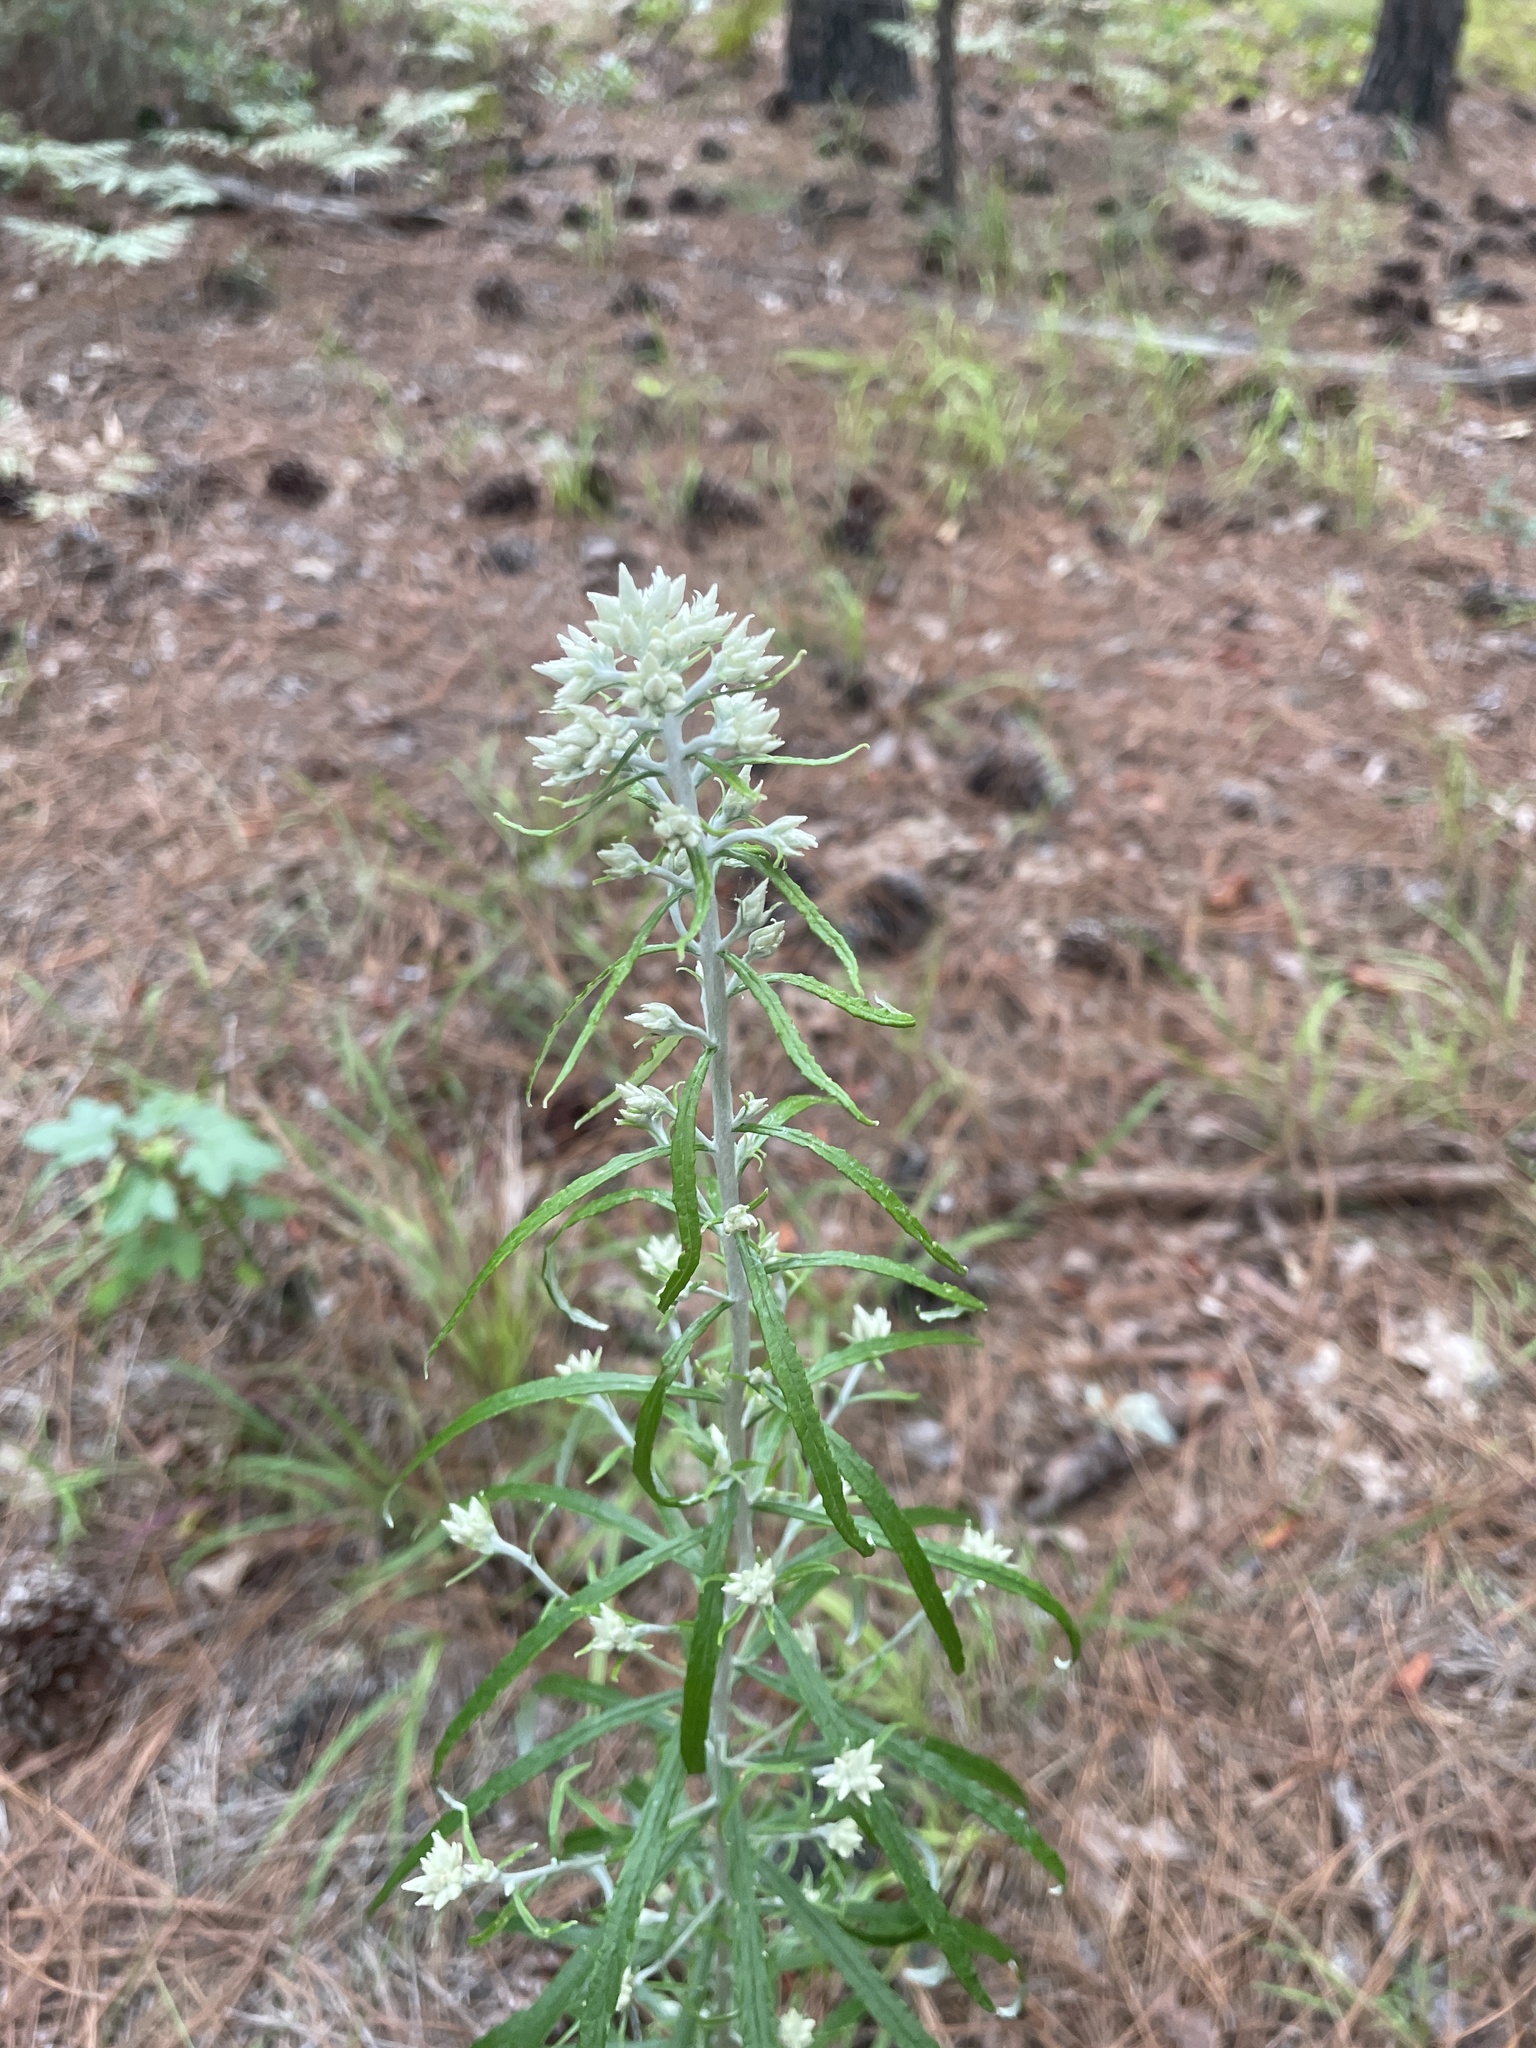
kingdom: Plantae
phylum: Tracheophyta
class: Magnoliopsida
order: Asterales
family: Asteraceae
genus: Pseudognaphalium
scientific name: Pseudognaphalium obtusifolium
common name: Eastern rabbit-tobacco
